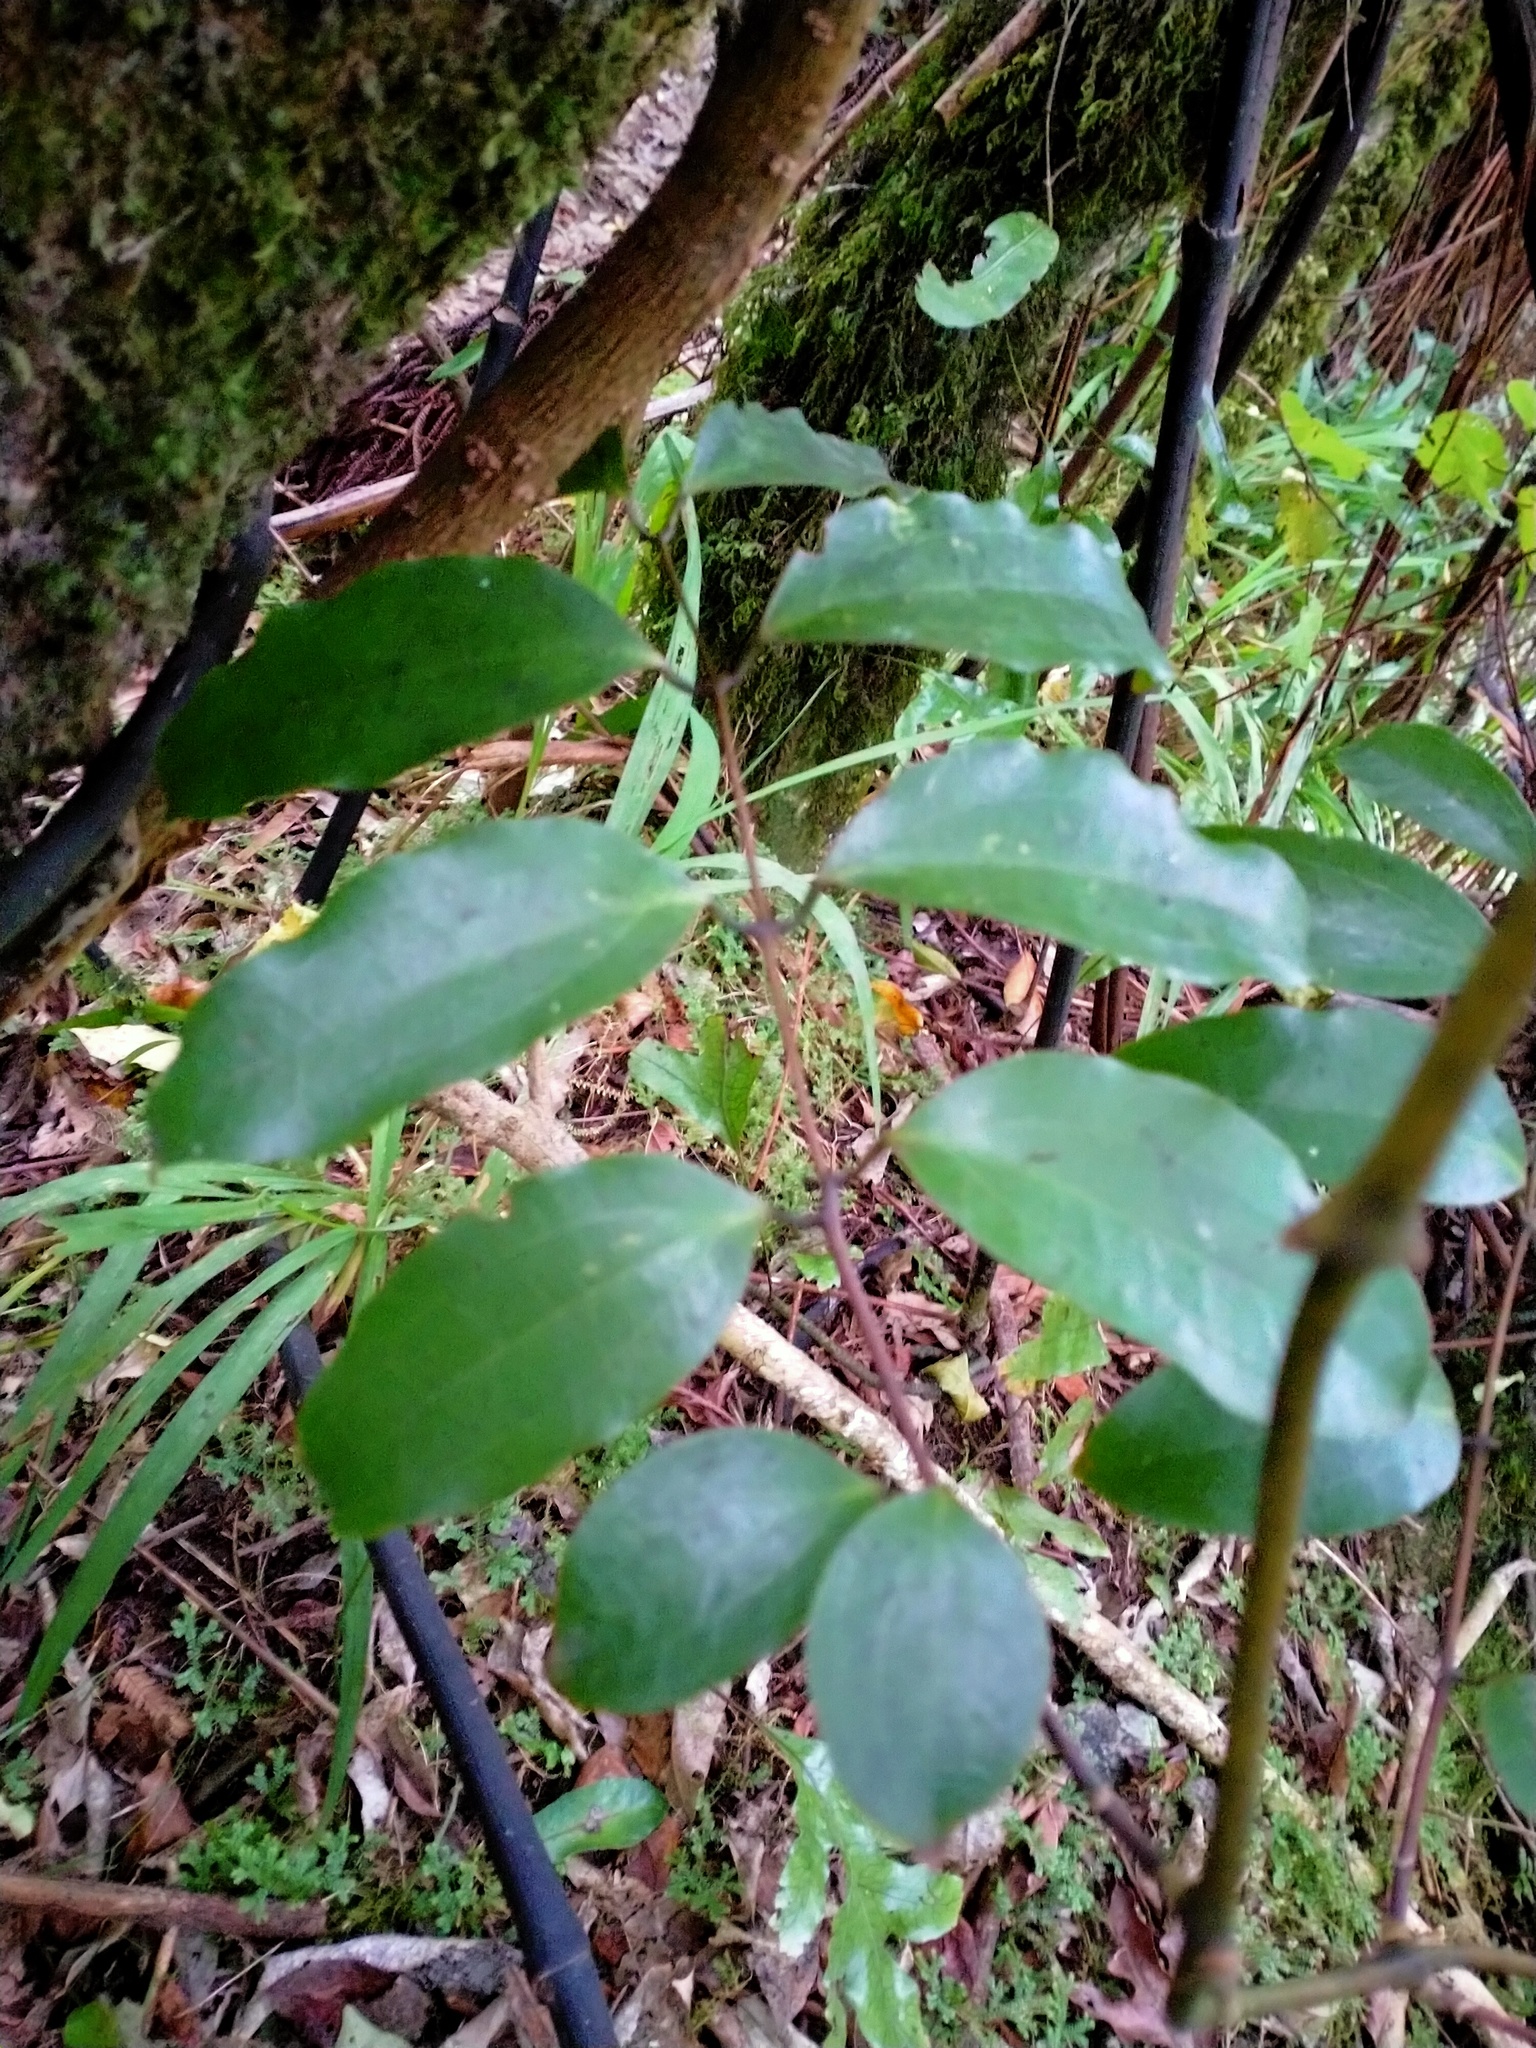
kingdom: Plantae
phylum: Tracheophyta
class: Liliopsida
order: Liliales
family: Ripogonaceae
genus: Ripogonum
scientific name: Ripogonum scandens
